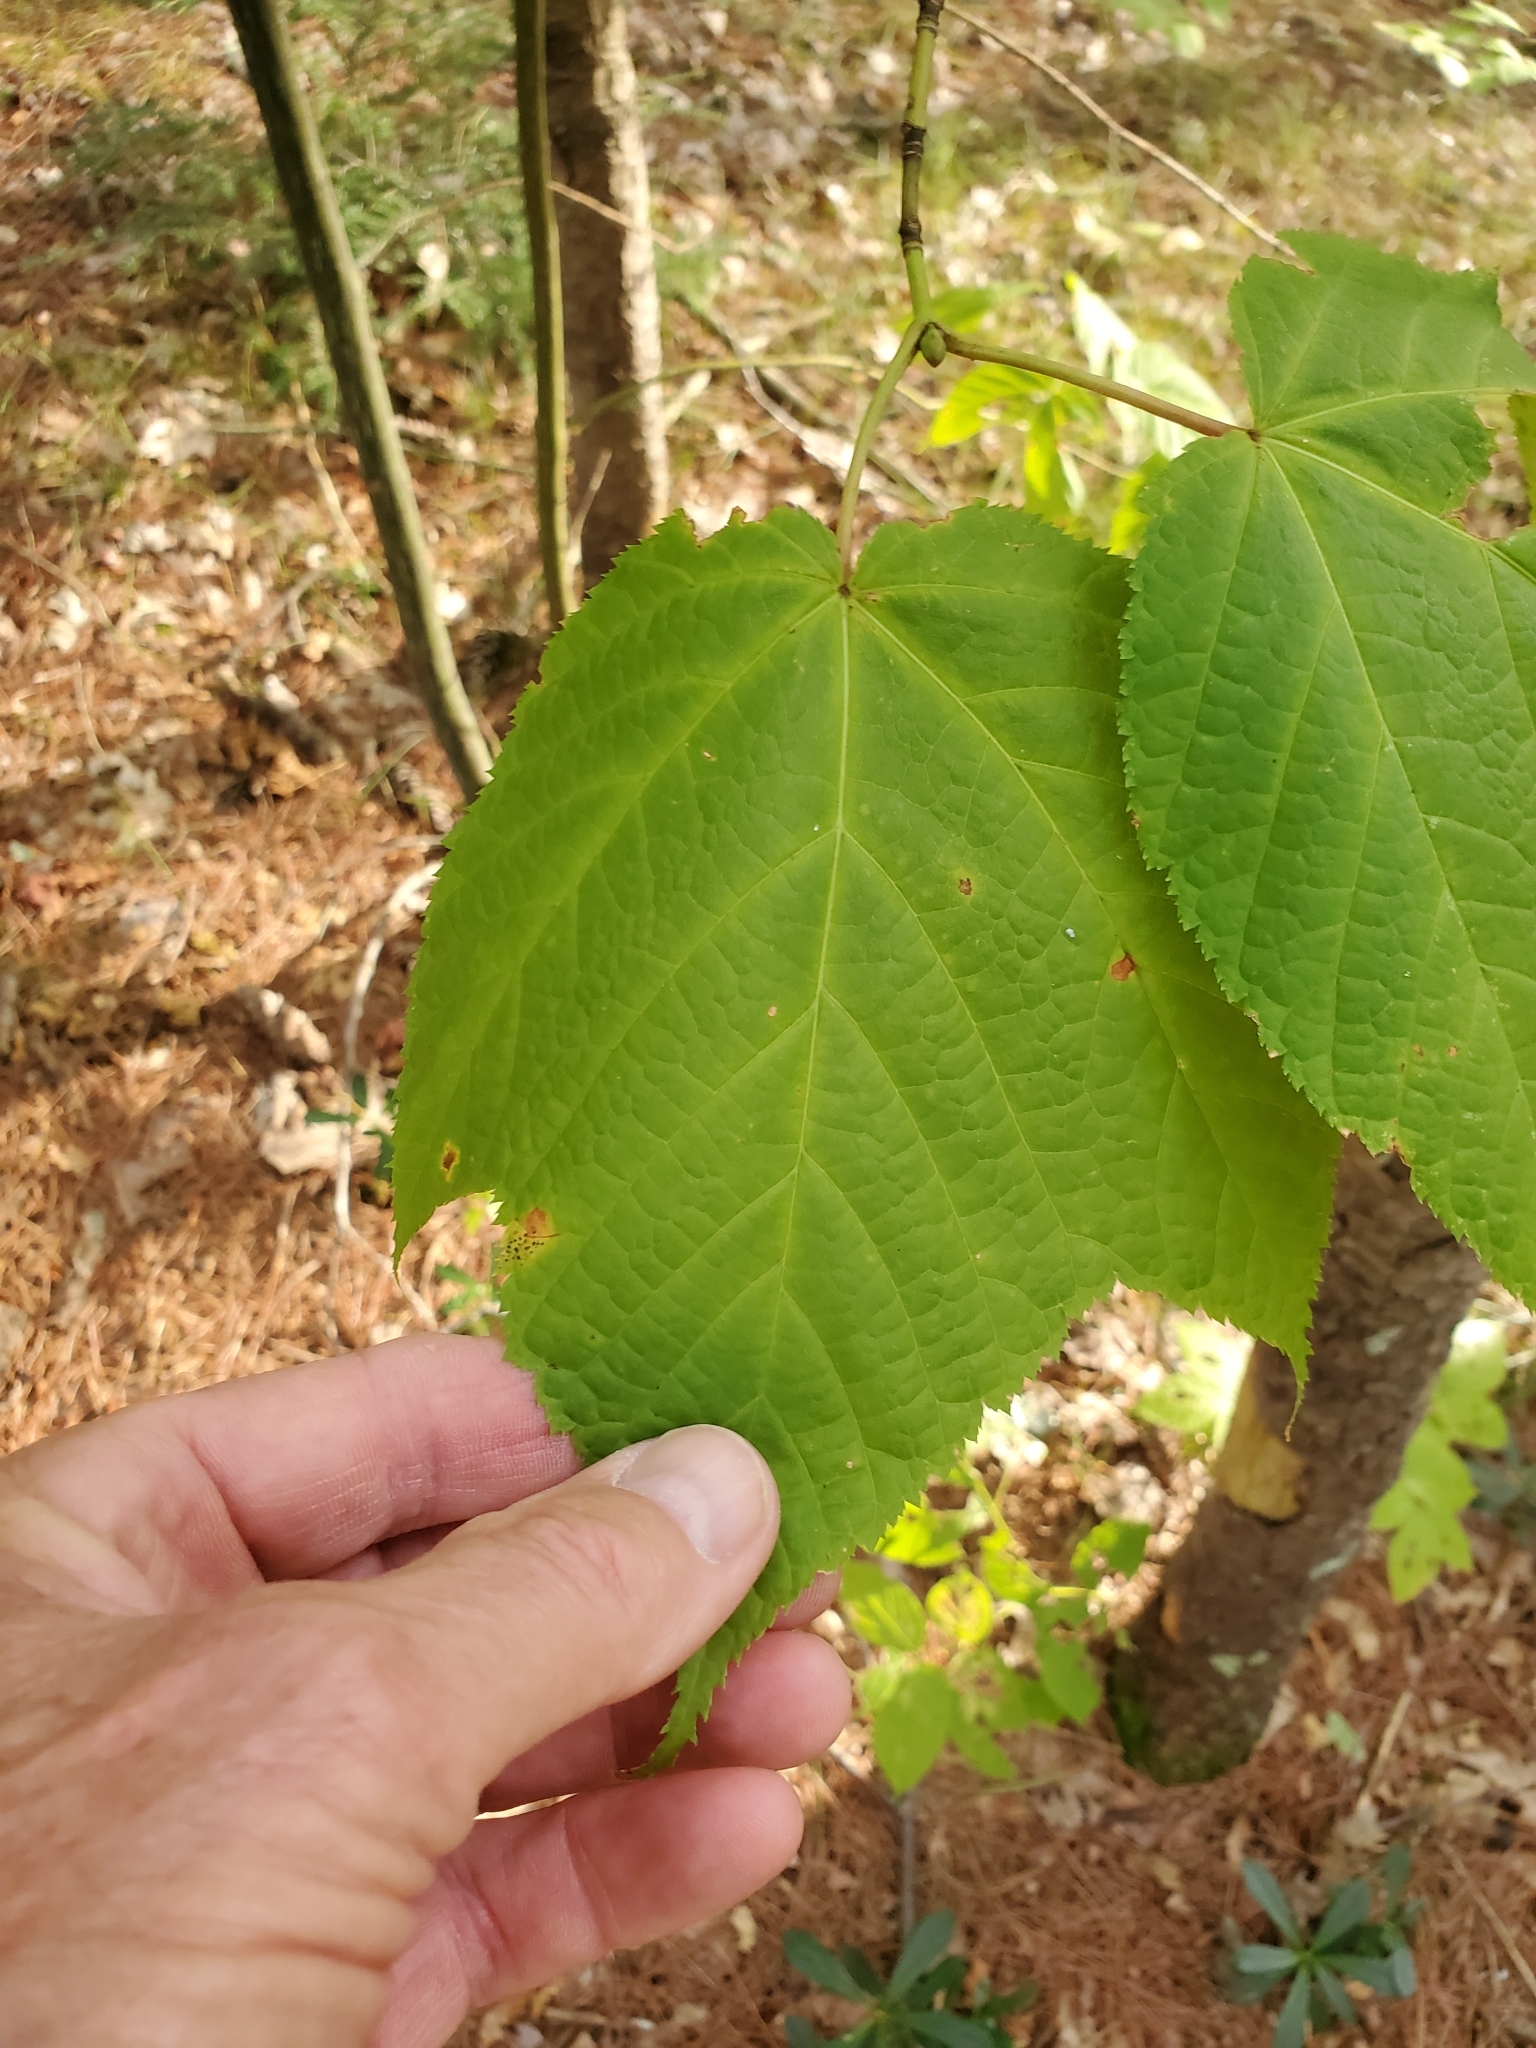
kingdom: Plantae
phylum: Tracheophyta
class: Magnoliopsida
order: Sapindales
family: Sapindaceae
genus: Acer
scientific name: Acer pensylvanicum
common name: Moosewood
